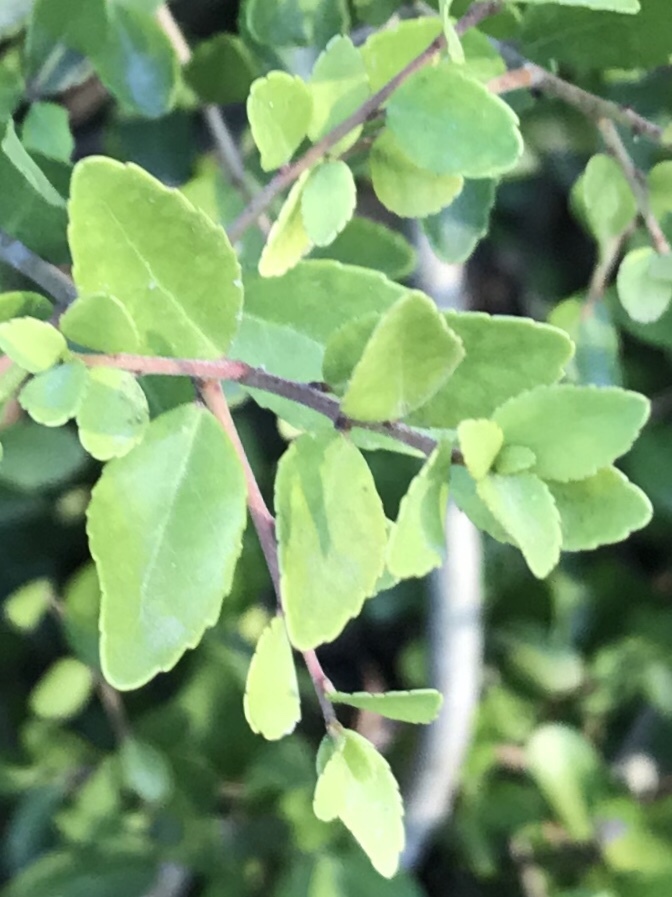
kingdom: Plantae
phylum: Tracheophyta
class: Magnoliopsida
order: Aquifoliales
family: Aquifoliaceae
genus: Ilex
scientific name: Ilex vomitoria
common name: Yaupon holly
